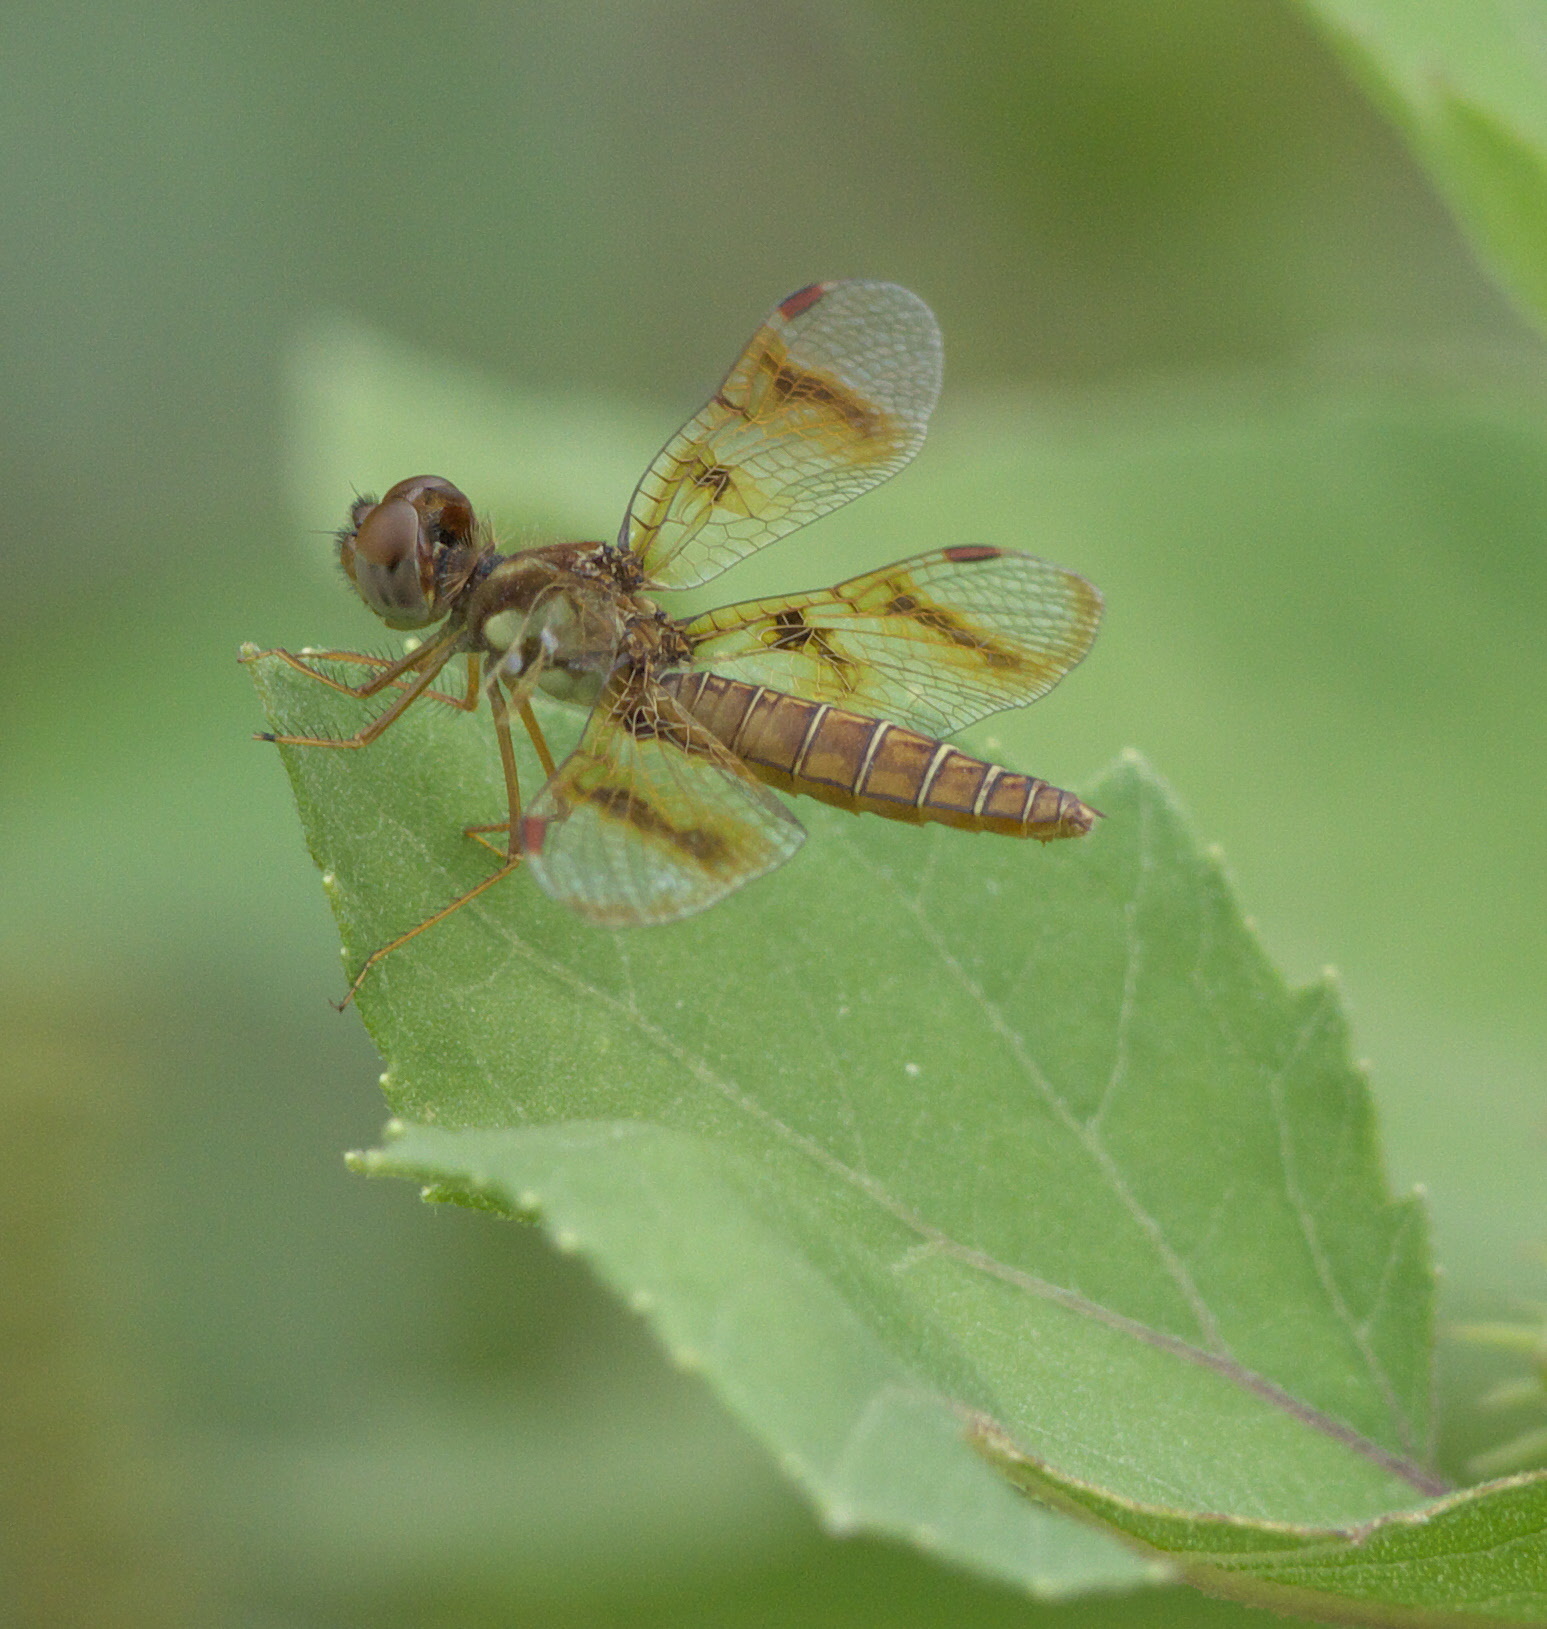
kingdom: Animalia
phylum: Arthropoda
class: Insecta
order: Odonata
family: Libellulidae
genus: Perithemis
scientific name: Perithemis tenera
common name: Eastern amberwing
